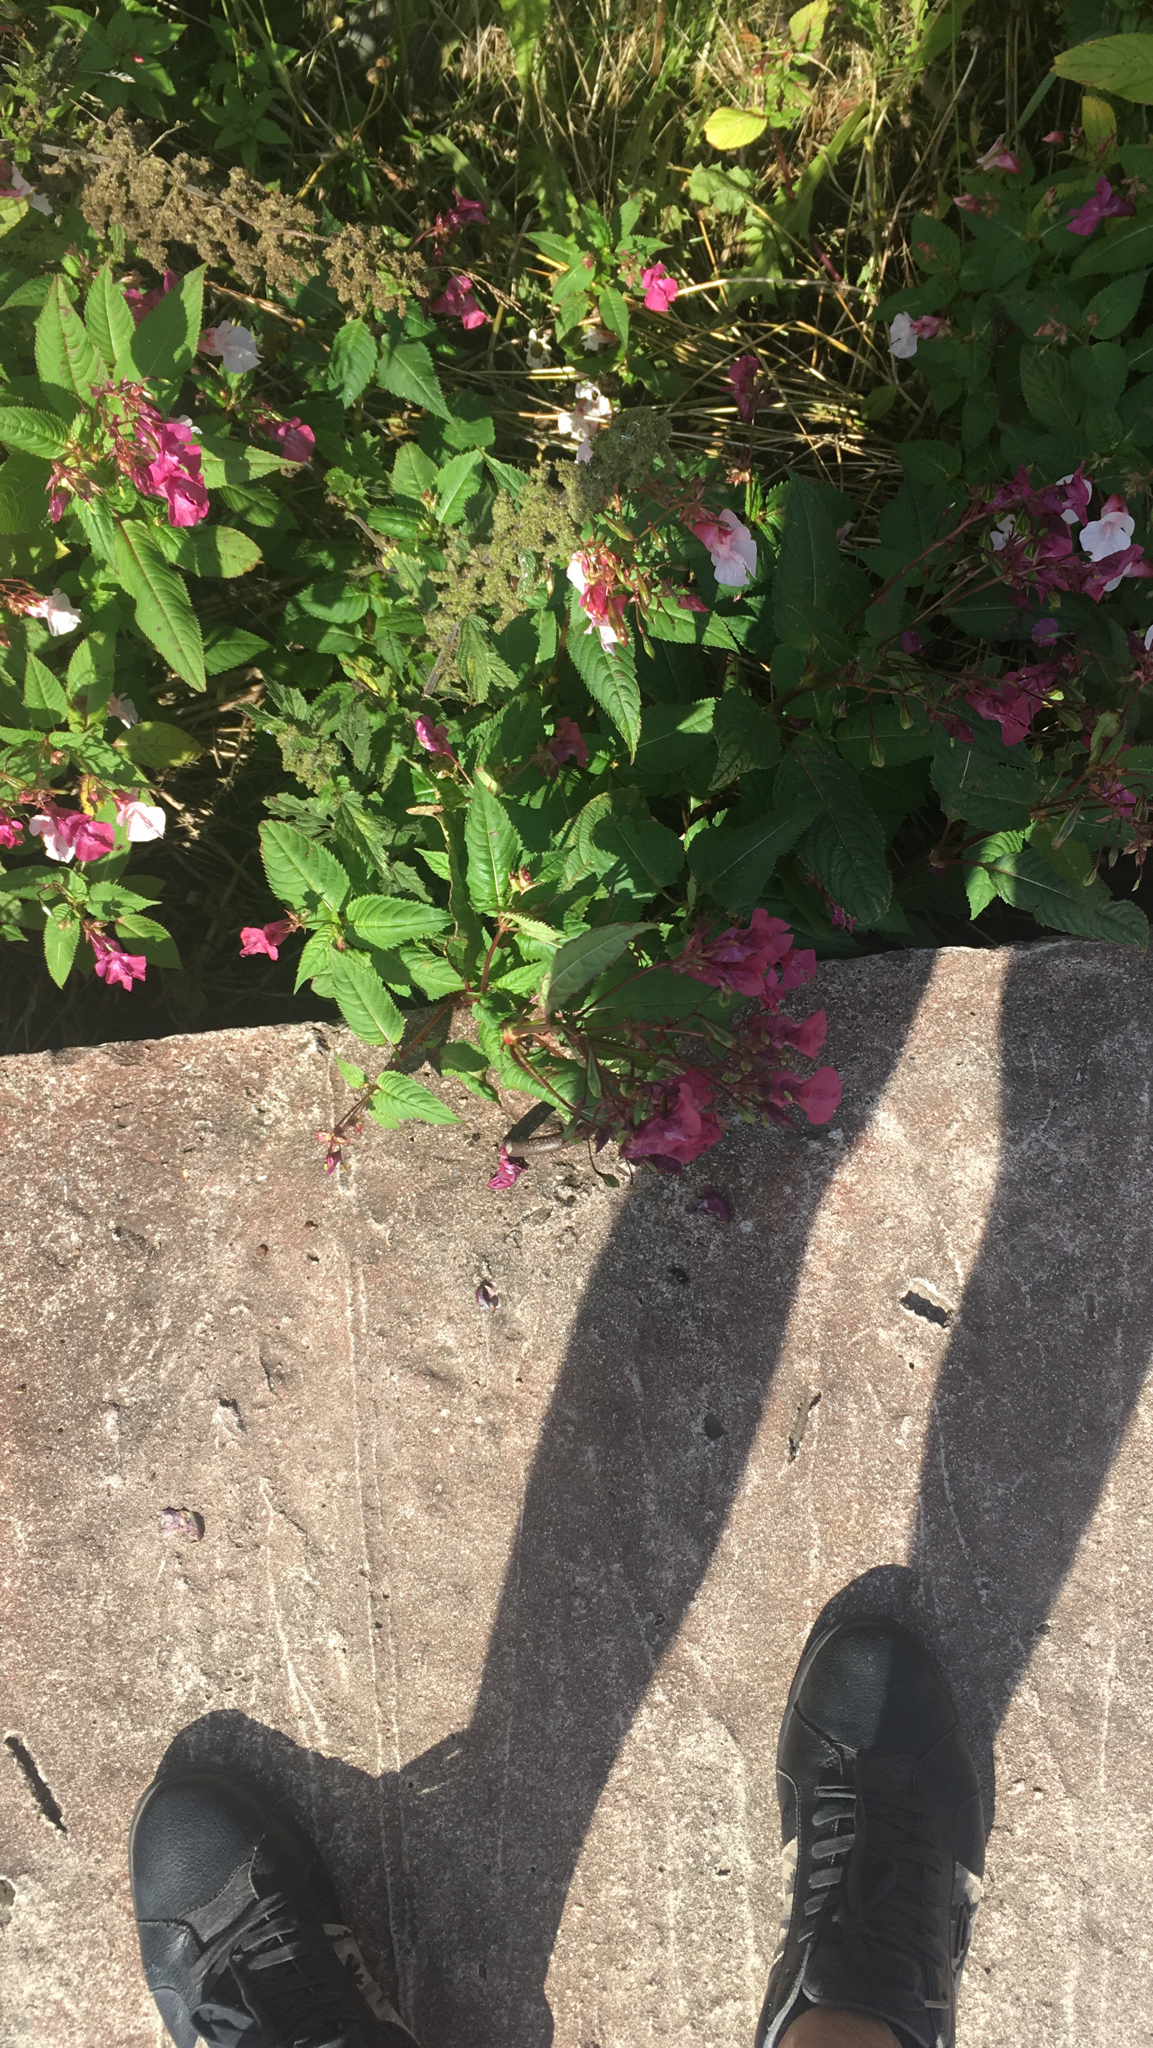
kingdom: Plantae
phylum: Tracheophyta
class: Magnoliopsida
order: Ericales
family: Balsaminaceae
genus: Impatiens
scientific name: Impatiens glandulifera
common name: Himalayan balsam
